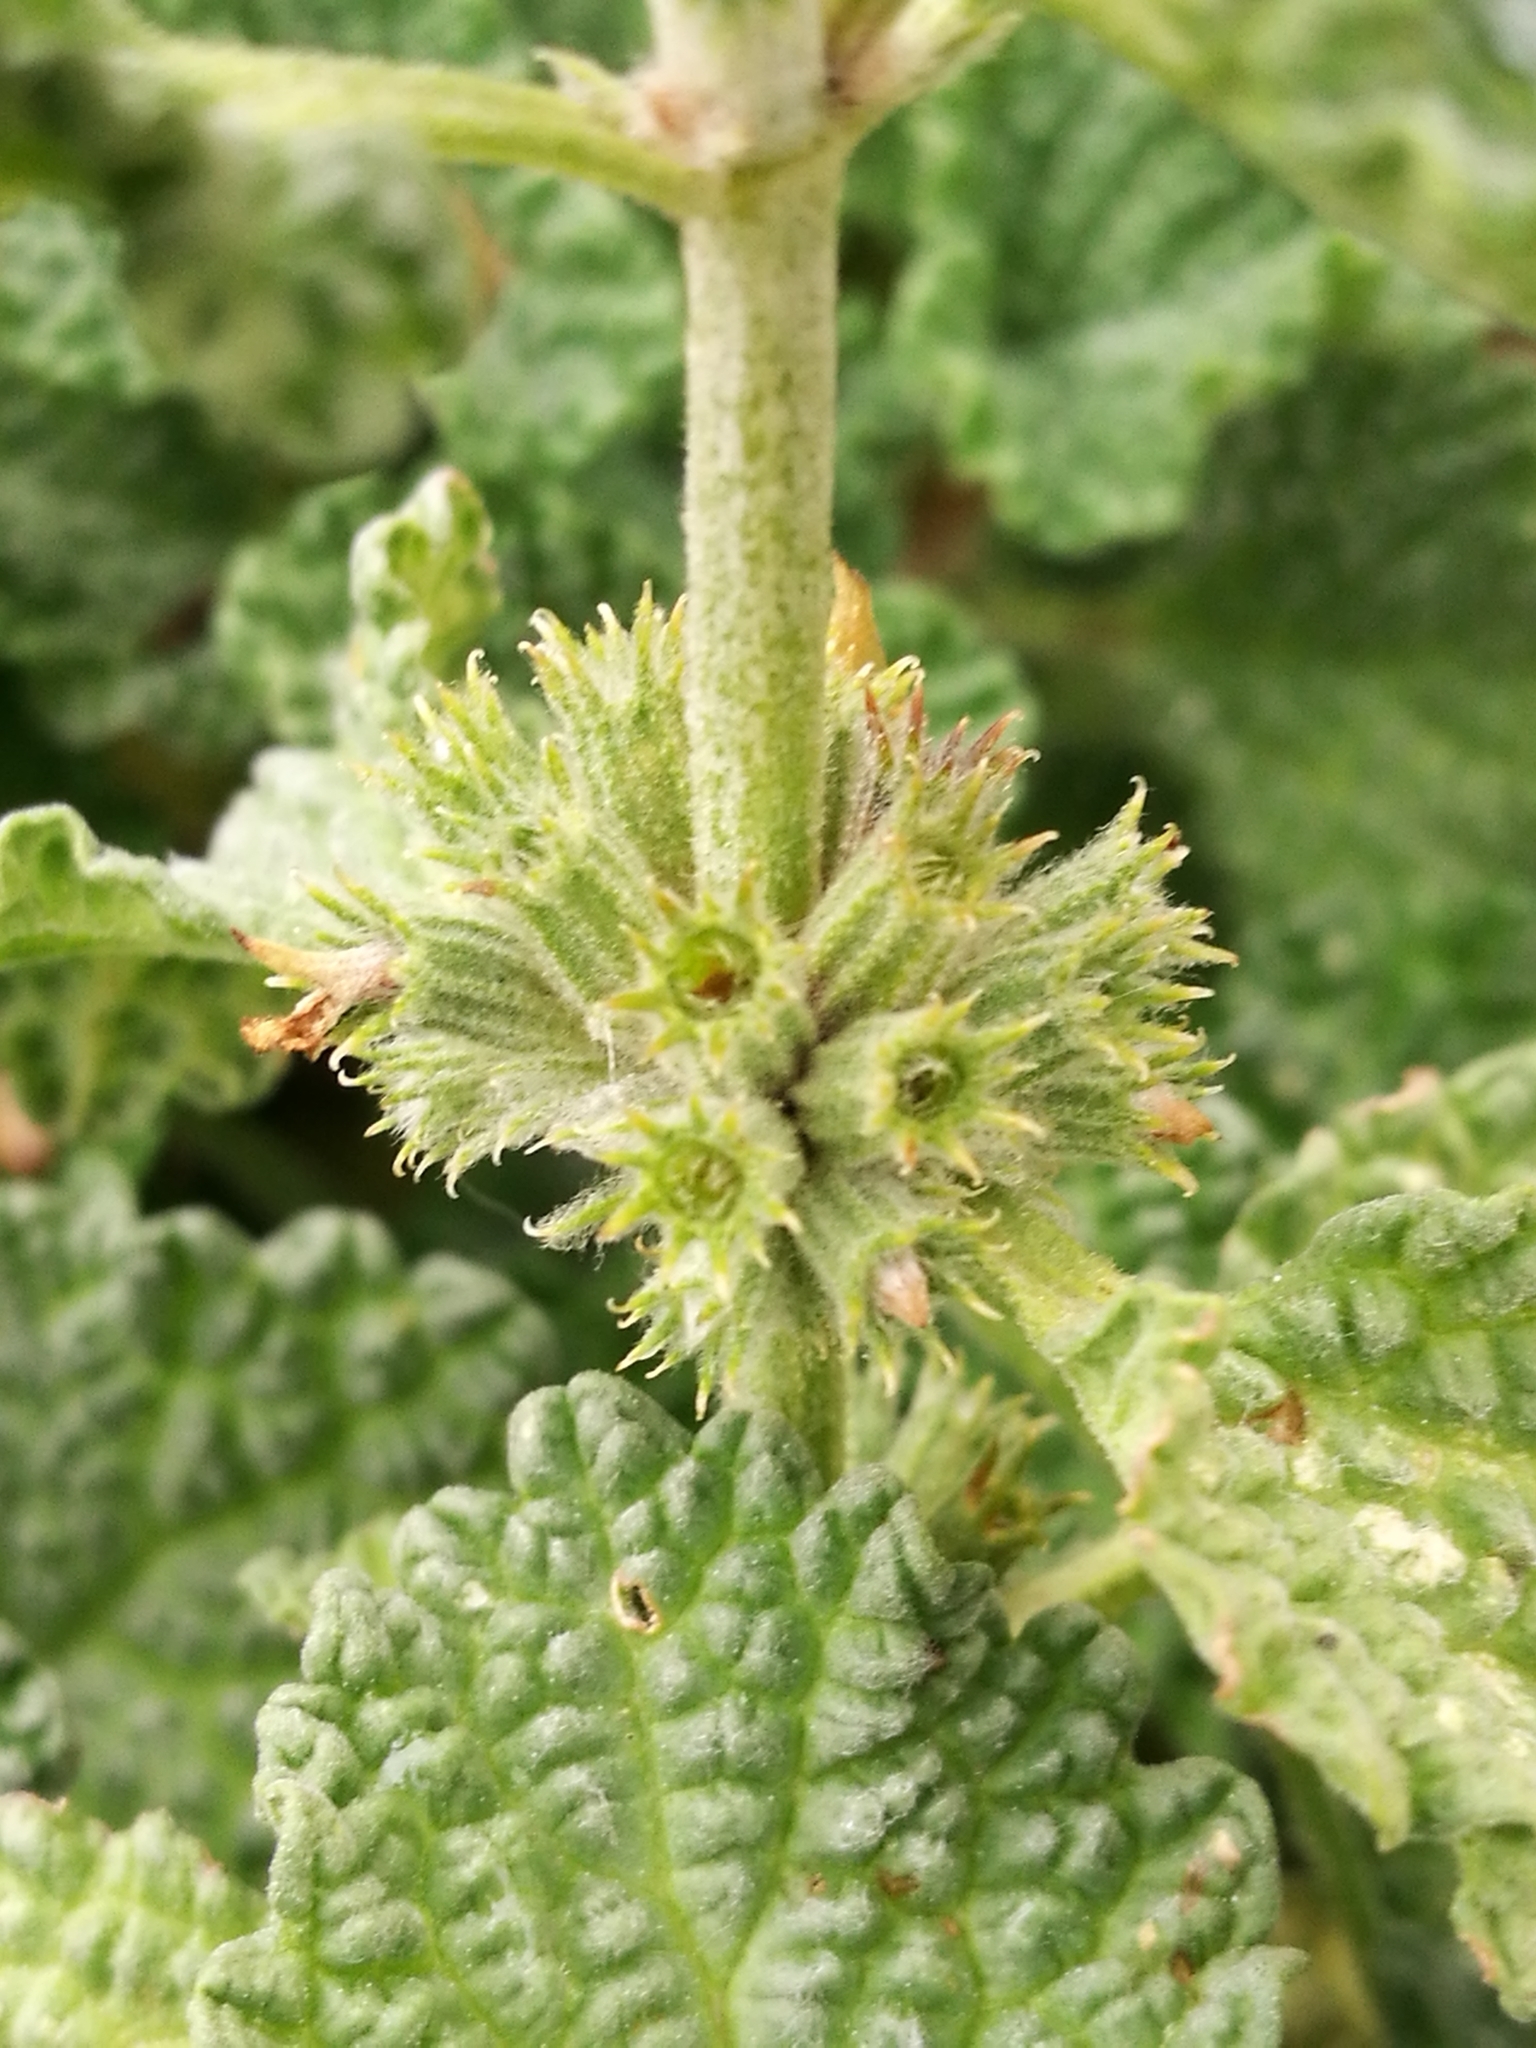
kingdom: Plantae
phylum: Tracheophyta
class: Magnoliopsida
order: Lamiales
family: Lamiaceae
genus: Marrubium
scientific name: Marrubium vulgare
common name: Horehound
